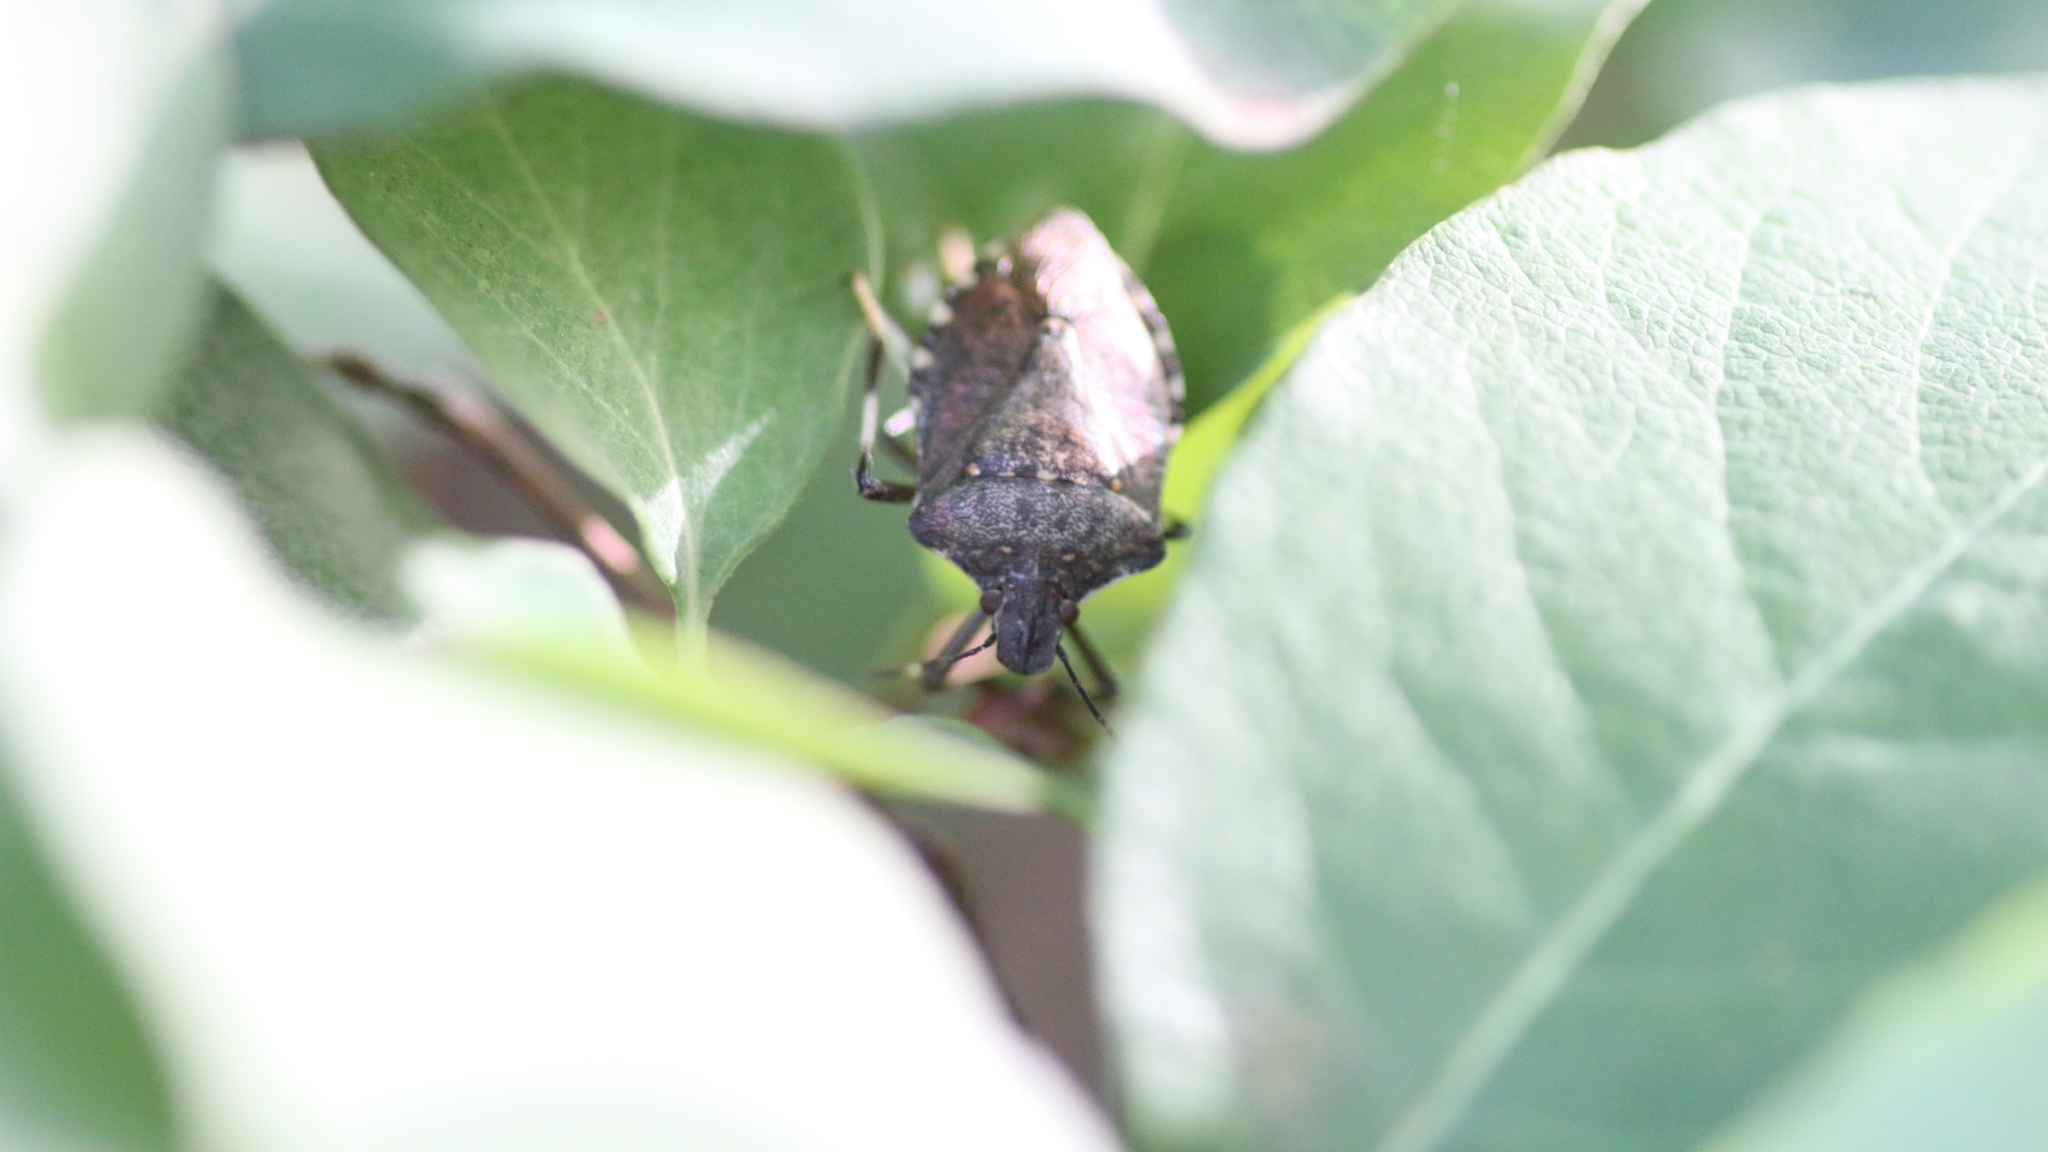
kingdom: Animalia
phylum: Arthropoda
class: Insecta
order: Hemiptera
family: Pentatomidae
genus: Halyomorpha
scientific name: Halyomorpha halys
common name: Brown marmorated stink bug
